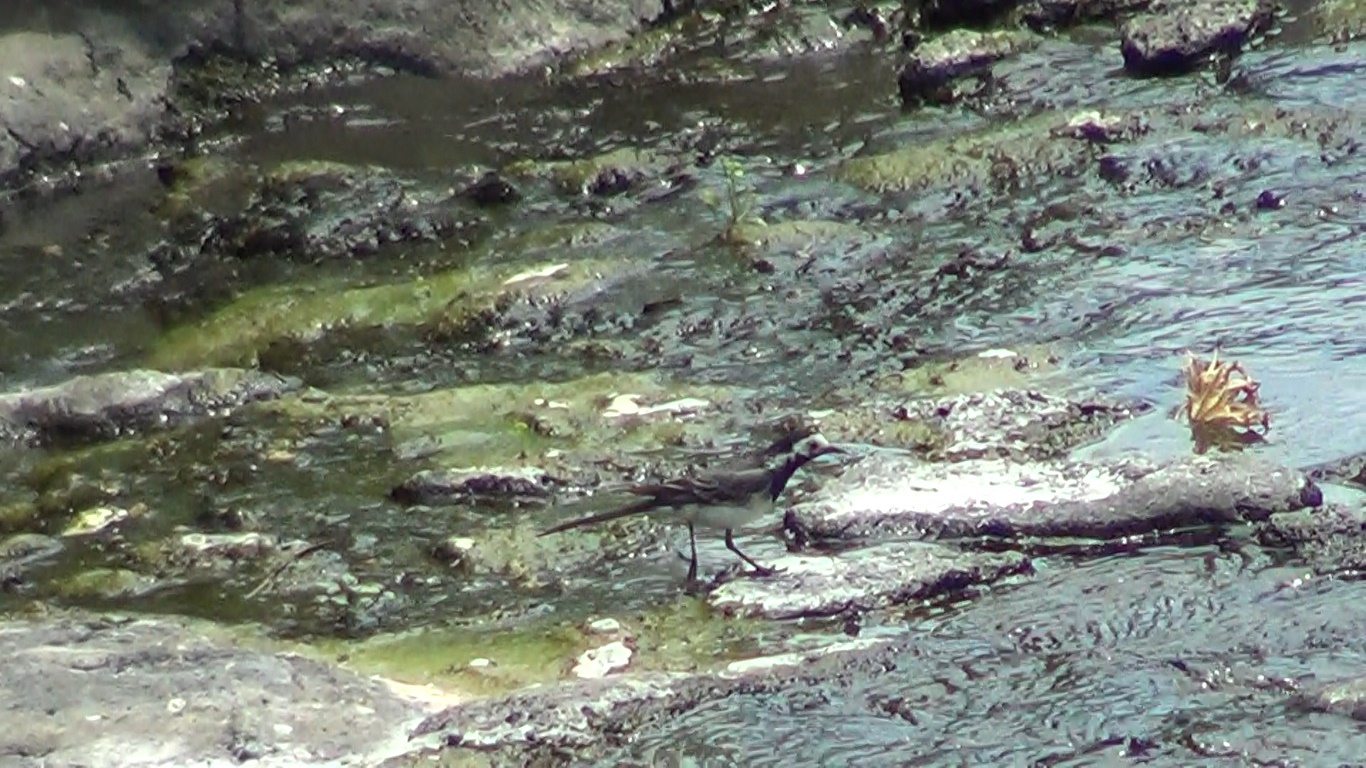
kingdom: Animalia
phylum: Chordata
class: Aves
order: Passeriformes
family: Motacillidae
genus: Motacilla
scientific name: Motacilla alba
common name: White wagtail
